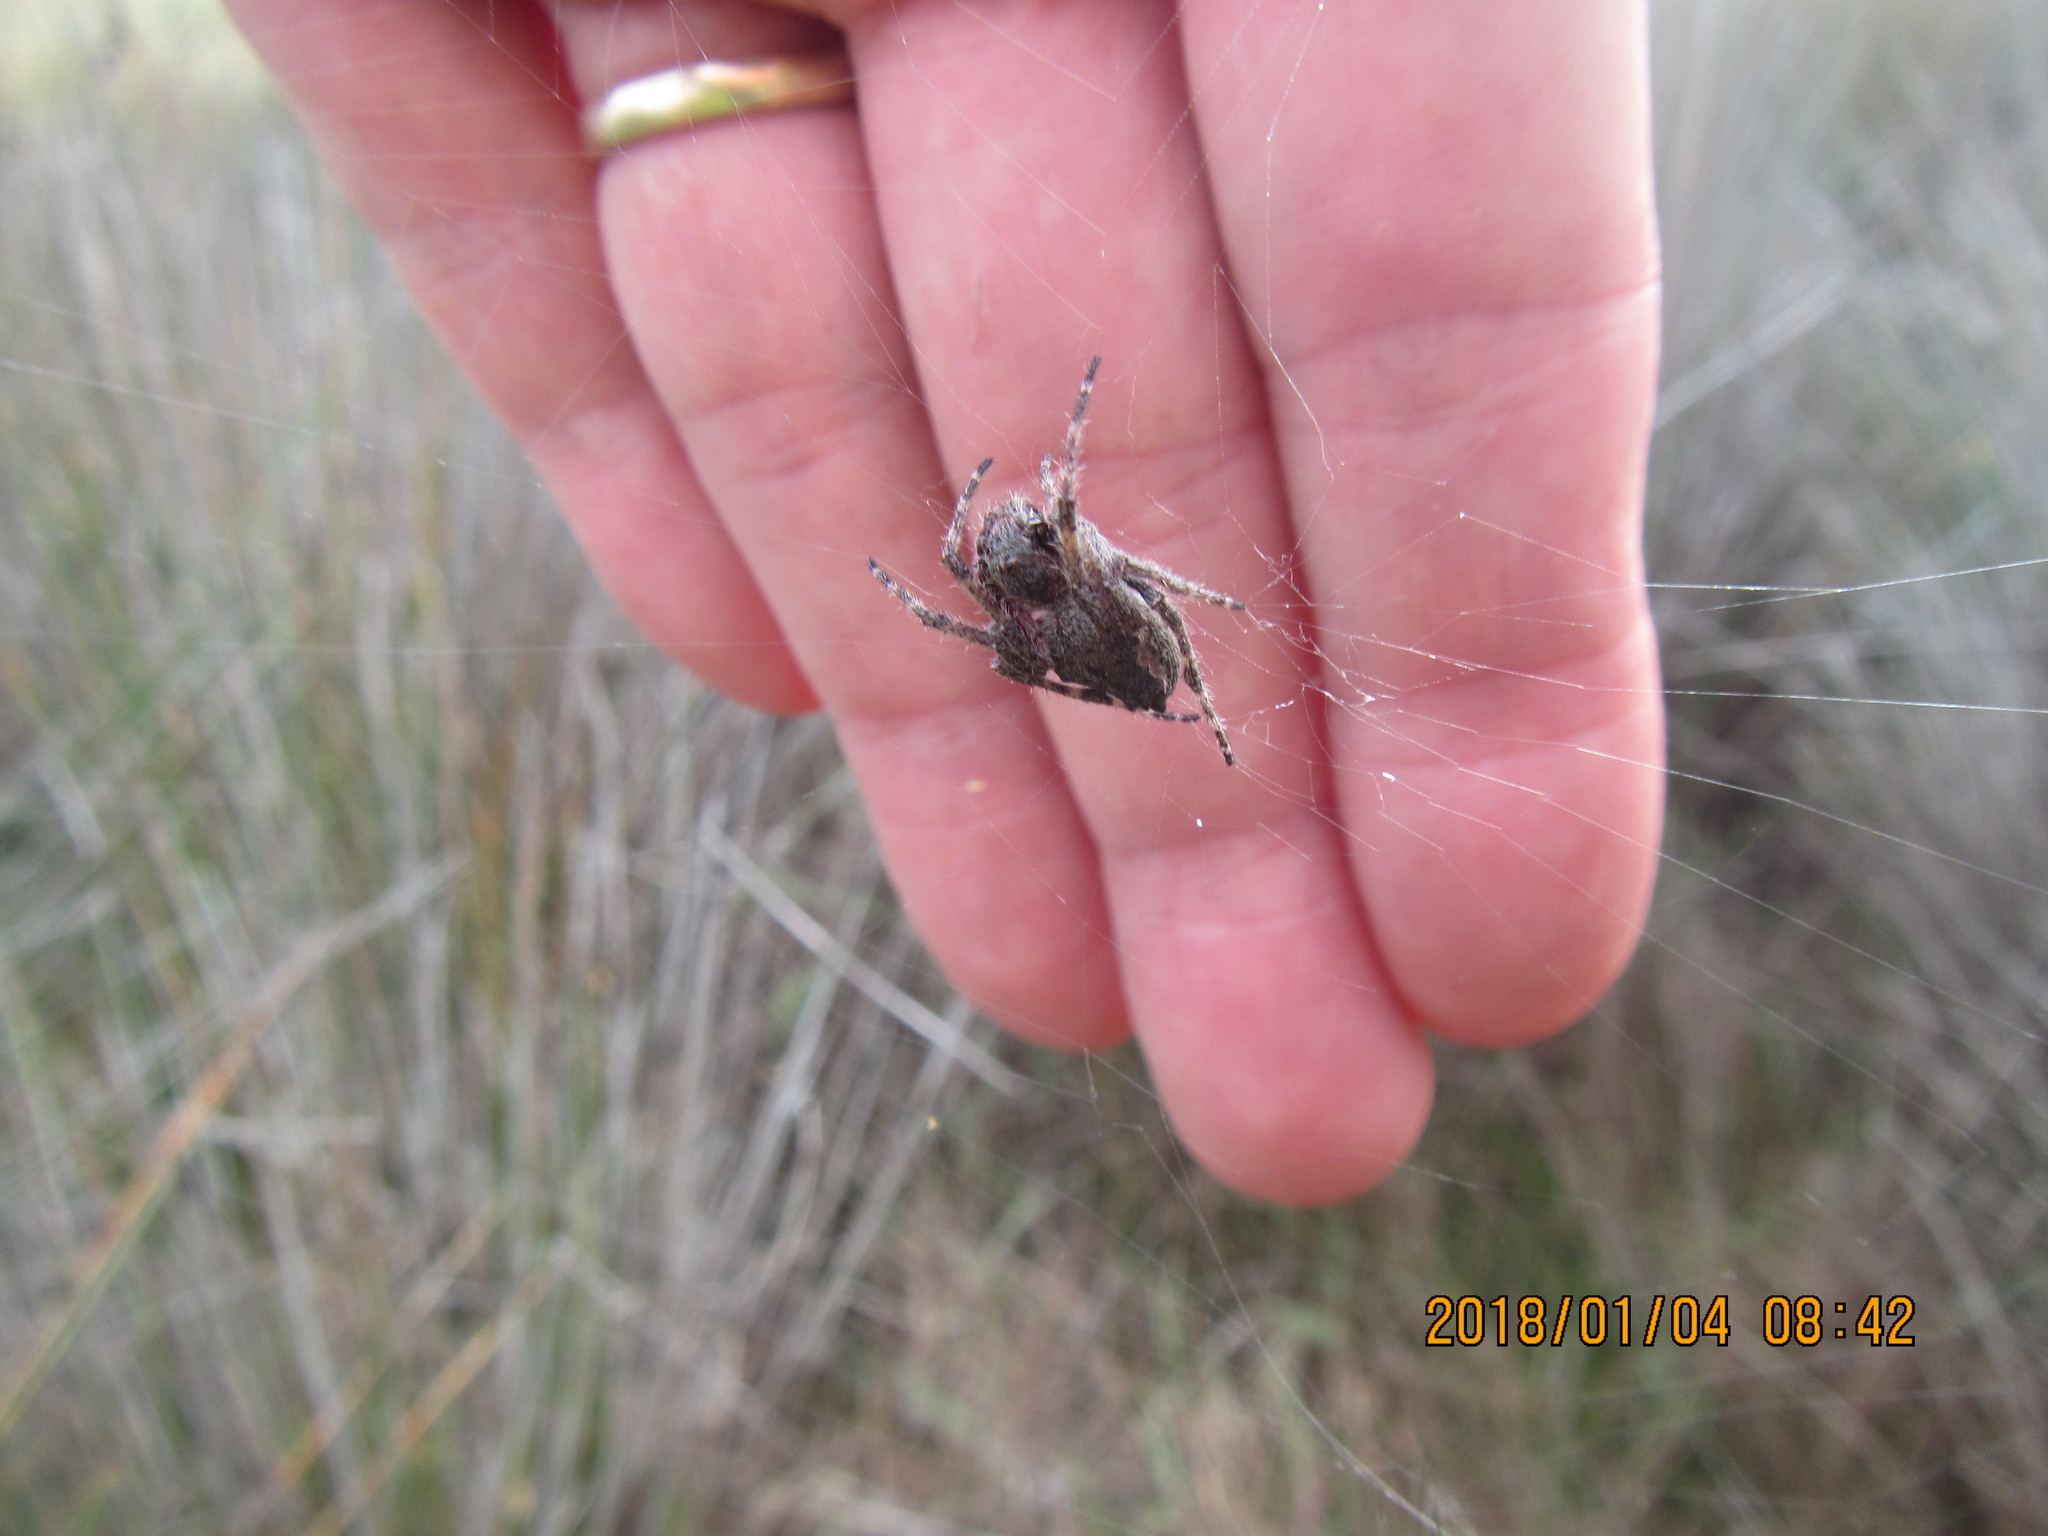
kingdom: Animalia
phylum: Arthropoda
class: Arachnida
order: Araneae
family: Araneidae
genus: Eriophora
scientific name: Eriophora pustulosa
